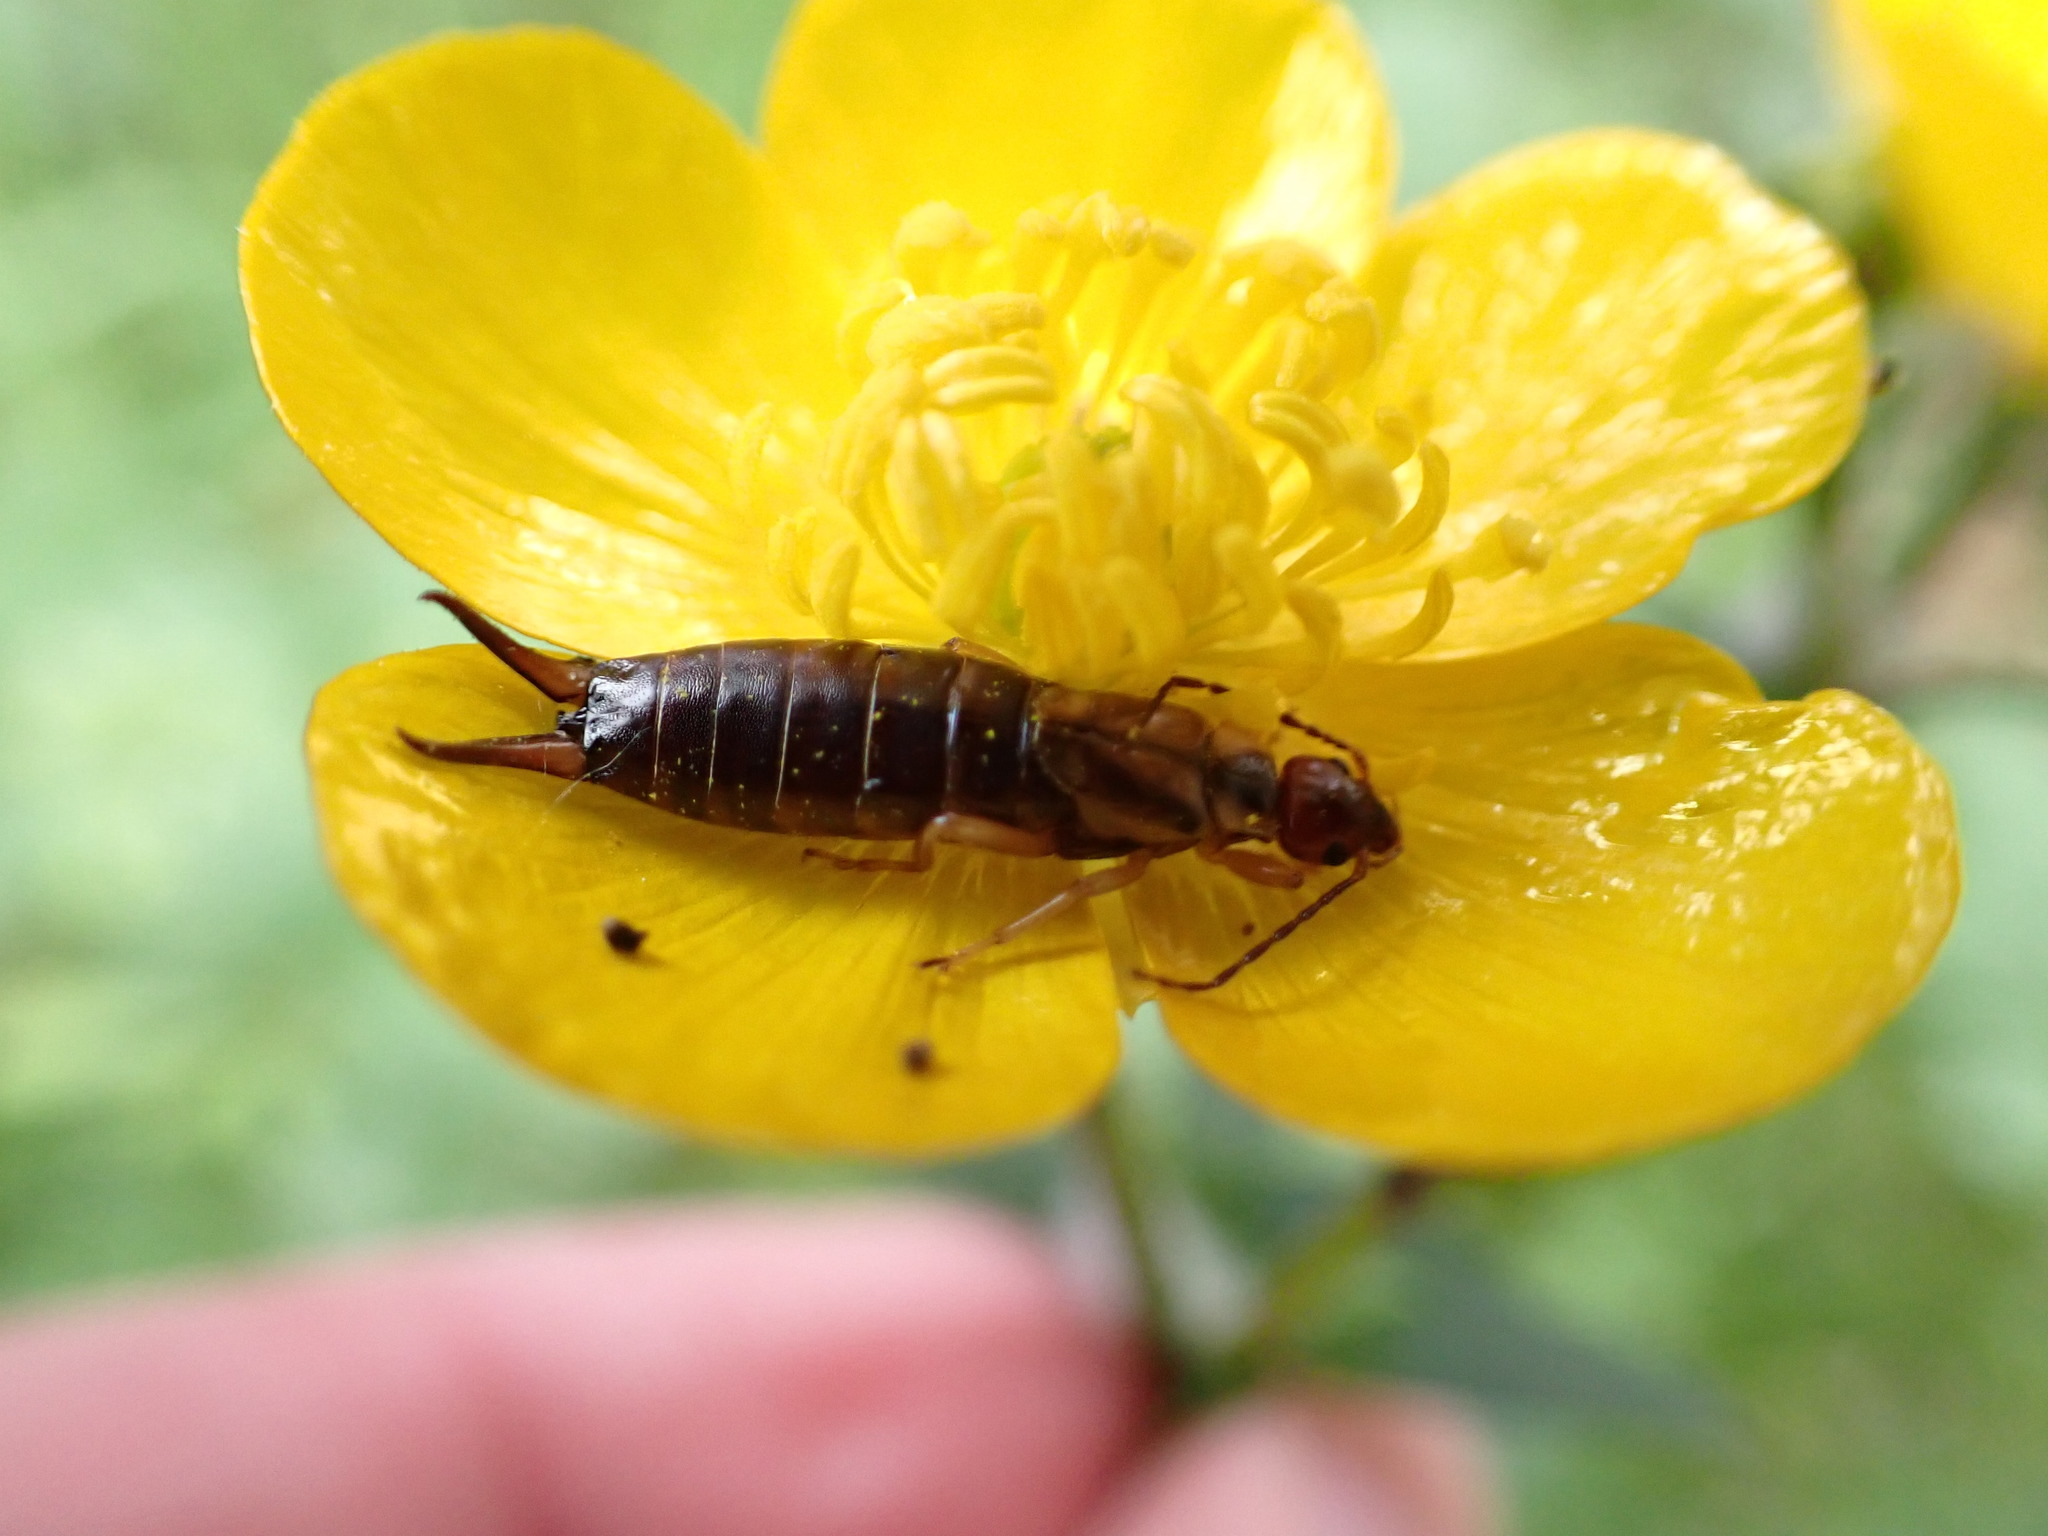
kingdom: Animalia
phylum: Arthropoda
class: Insecta
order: Dermaptera
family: Forficulidae
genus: Forficula
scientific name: Forficula
